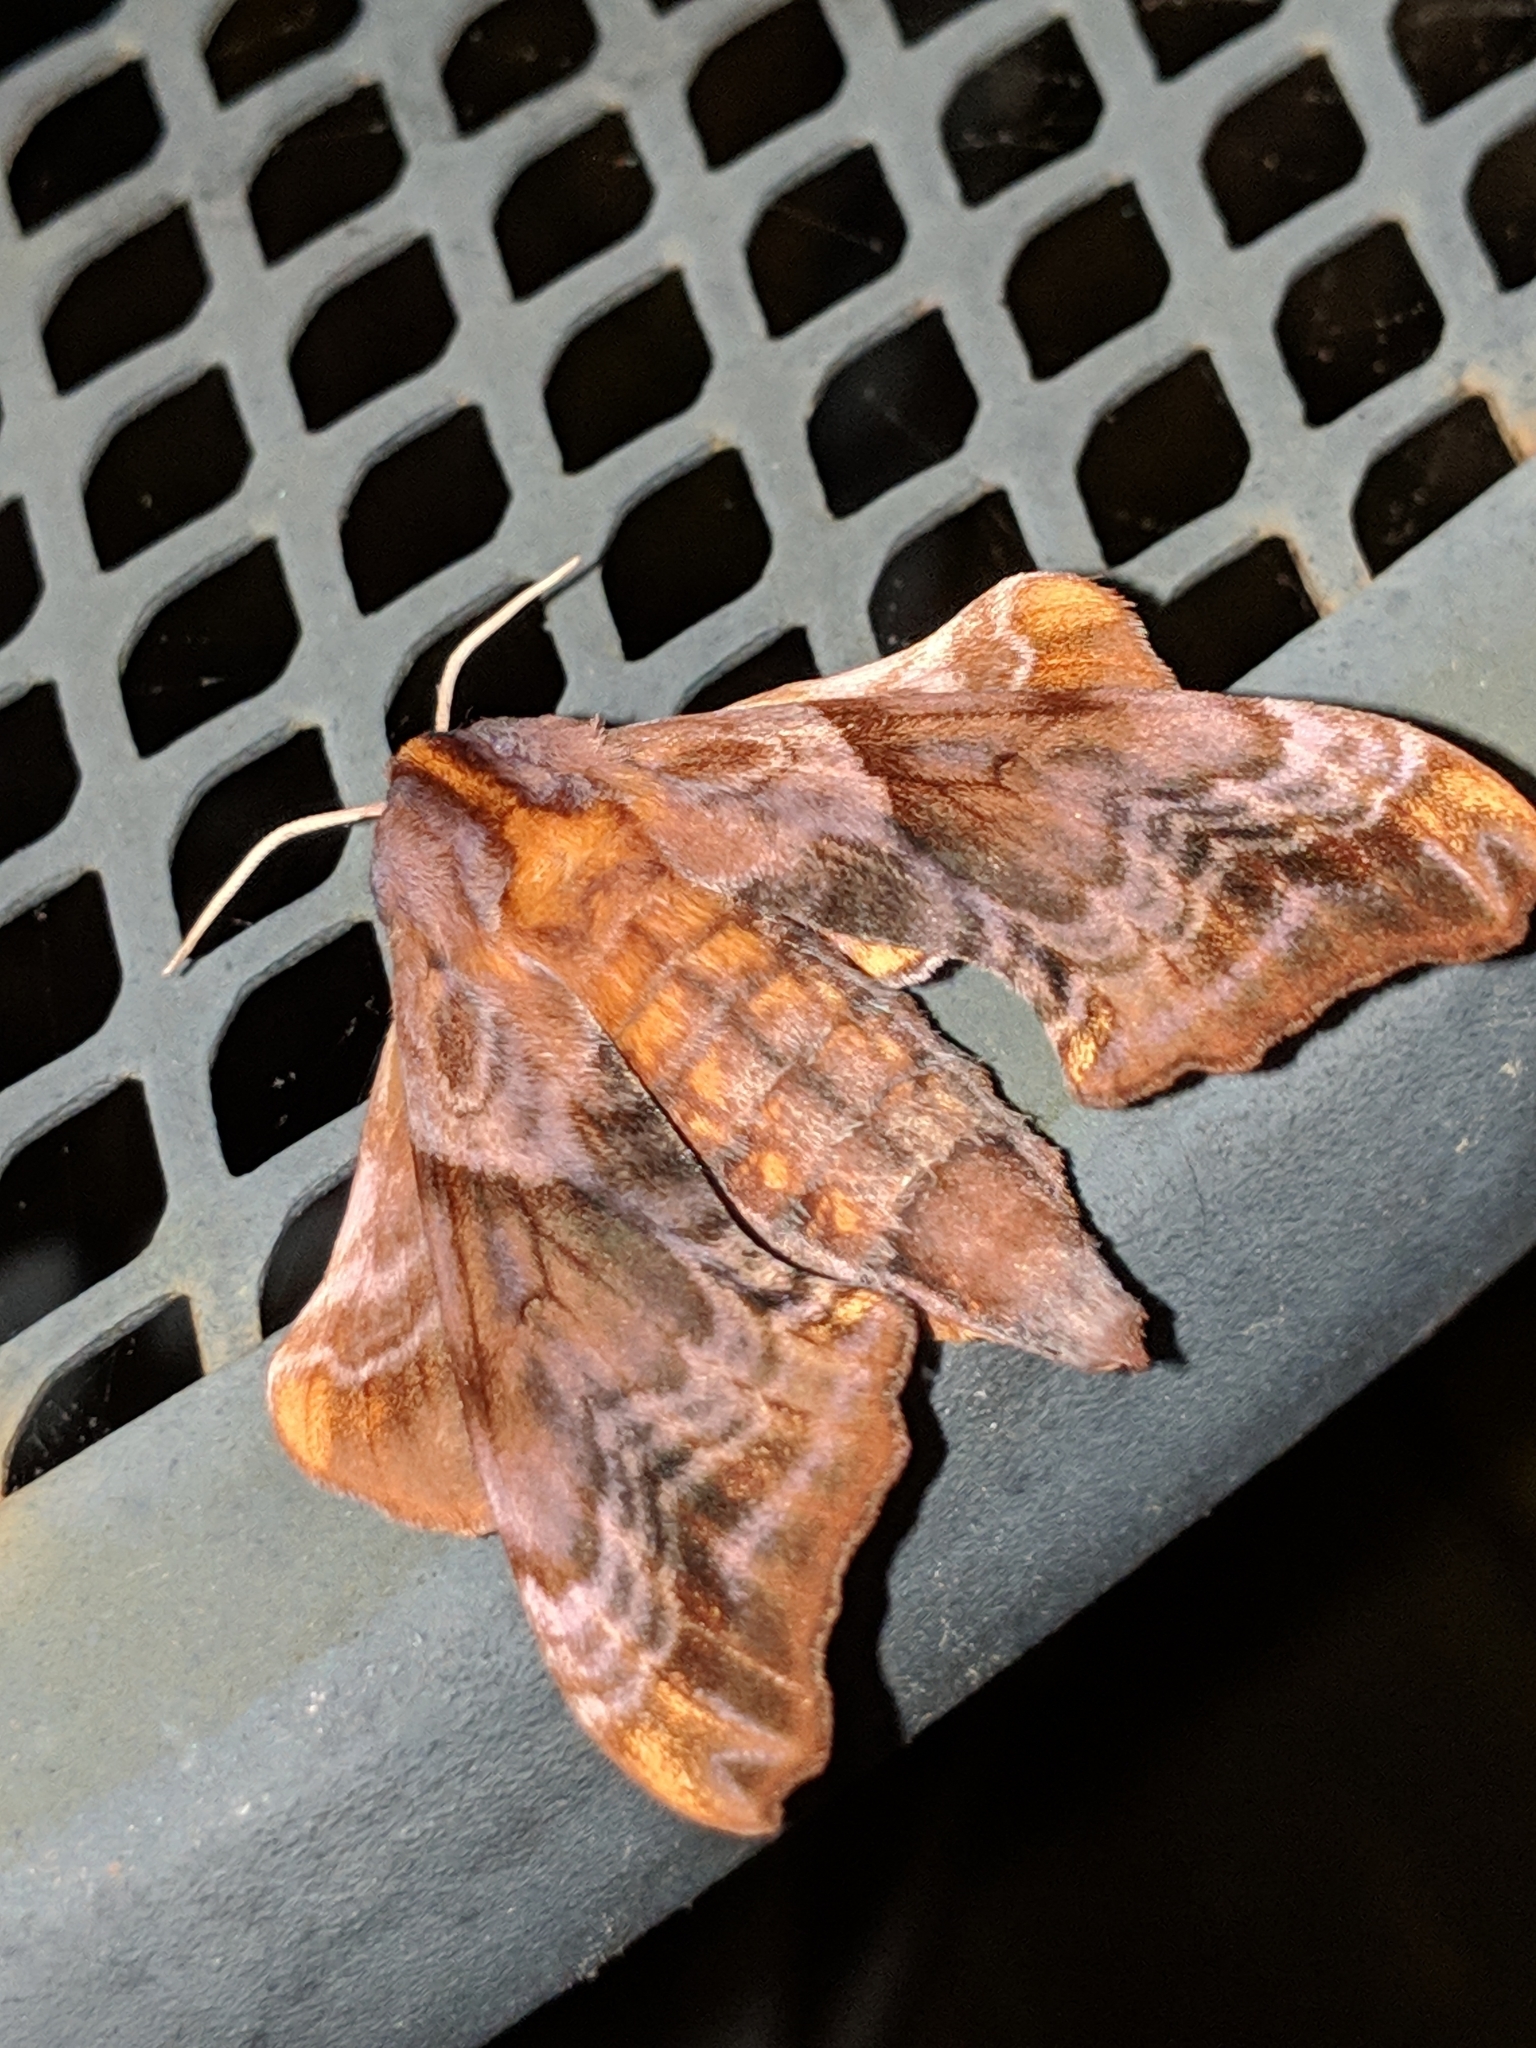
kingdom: Animalia
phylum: Arthropoda
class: Insecta
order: Lepidoptera
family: Sphingidae
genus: Paonias
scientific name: Paonias myops
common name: Small-eyed sphinx
